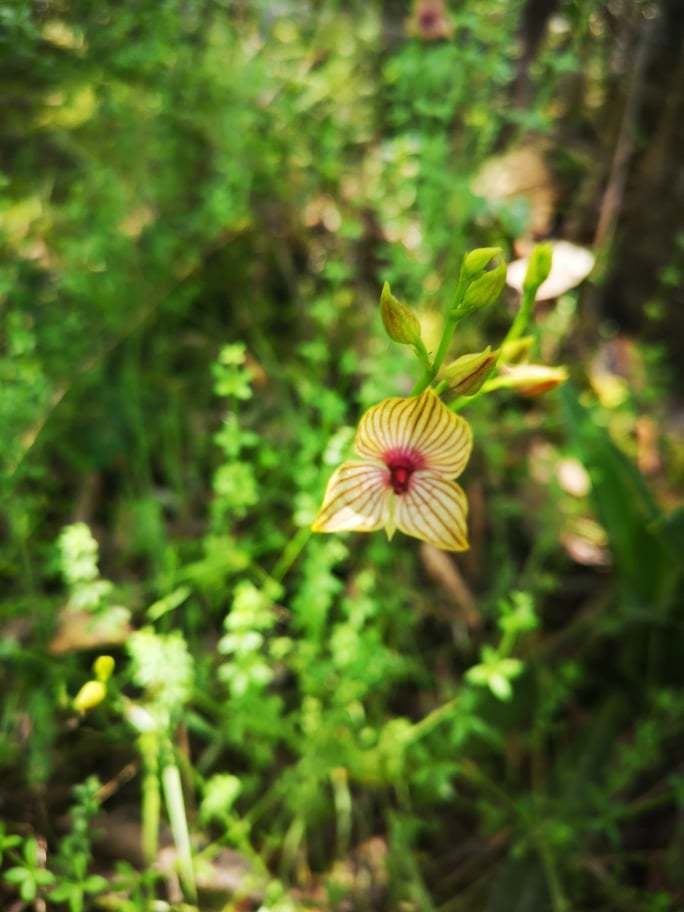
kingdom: Plantae
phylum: Tracheophyta
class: Liliopsida
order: Asparagales
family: Orchidaceae
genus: Telipogon
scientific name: Telipogon nervosus
